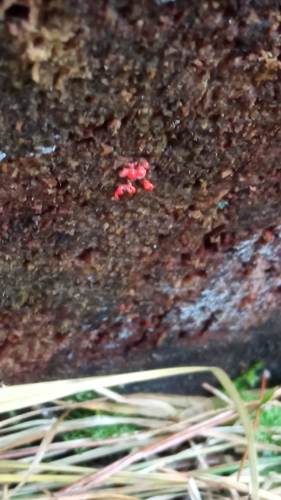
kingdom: Fungi
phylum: Basidiomycota
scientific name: Basidiomycota
